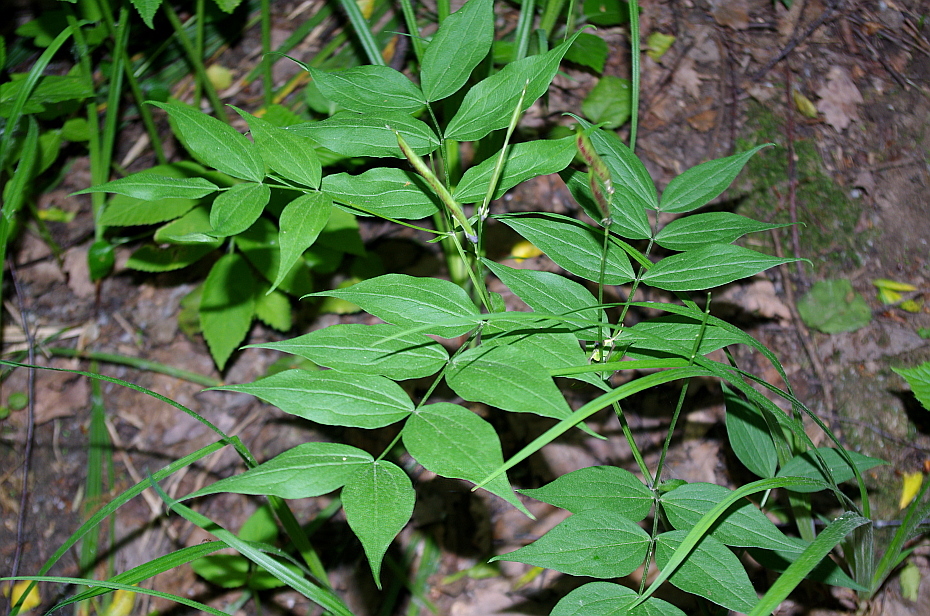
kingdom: Plantae
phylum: Tracheophyta
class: Magnoliopsida
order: Fabales
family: Fabaceae
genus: Lathyrus
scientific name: Lathyrus vernus
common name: Spring pea
